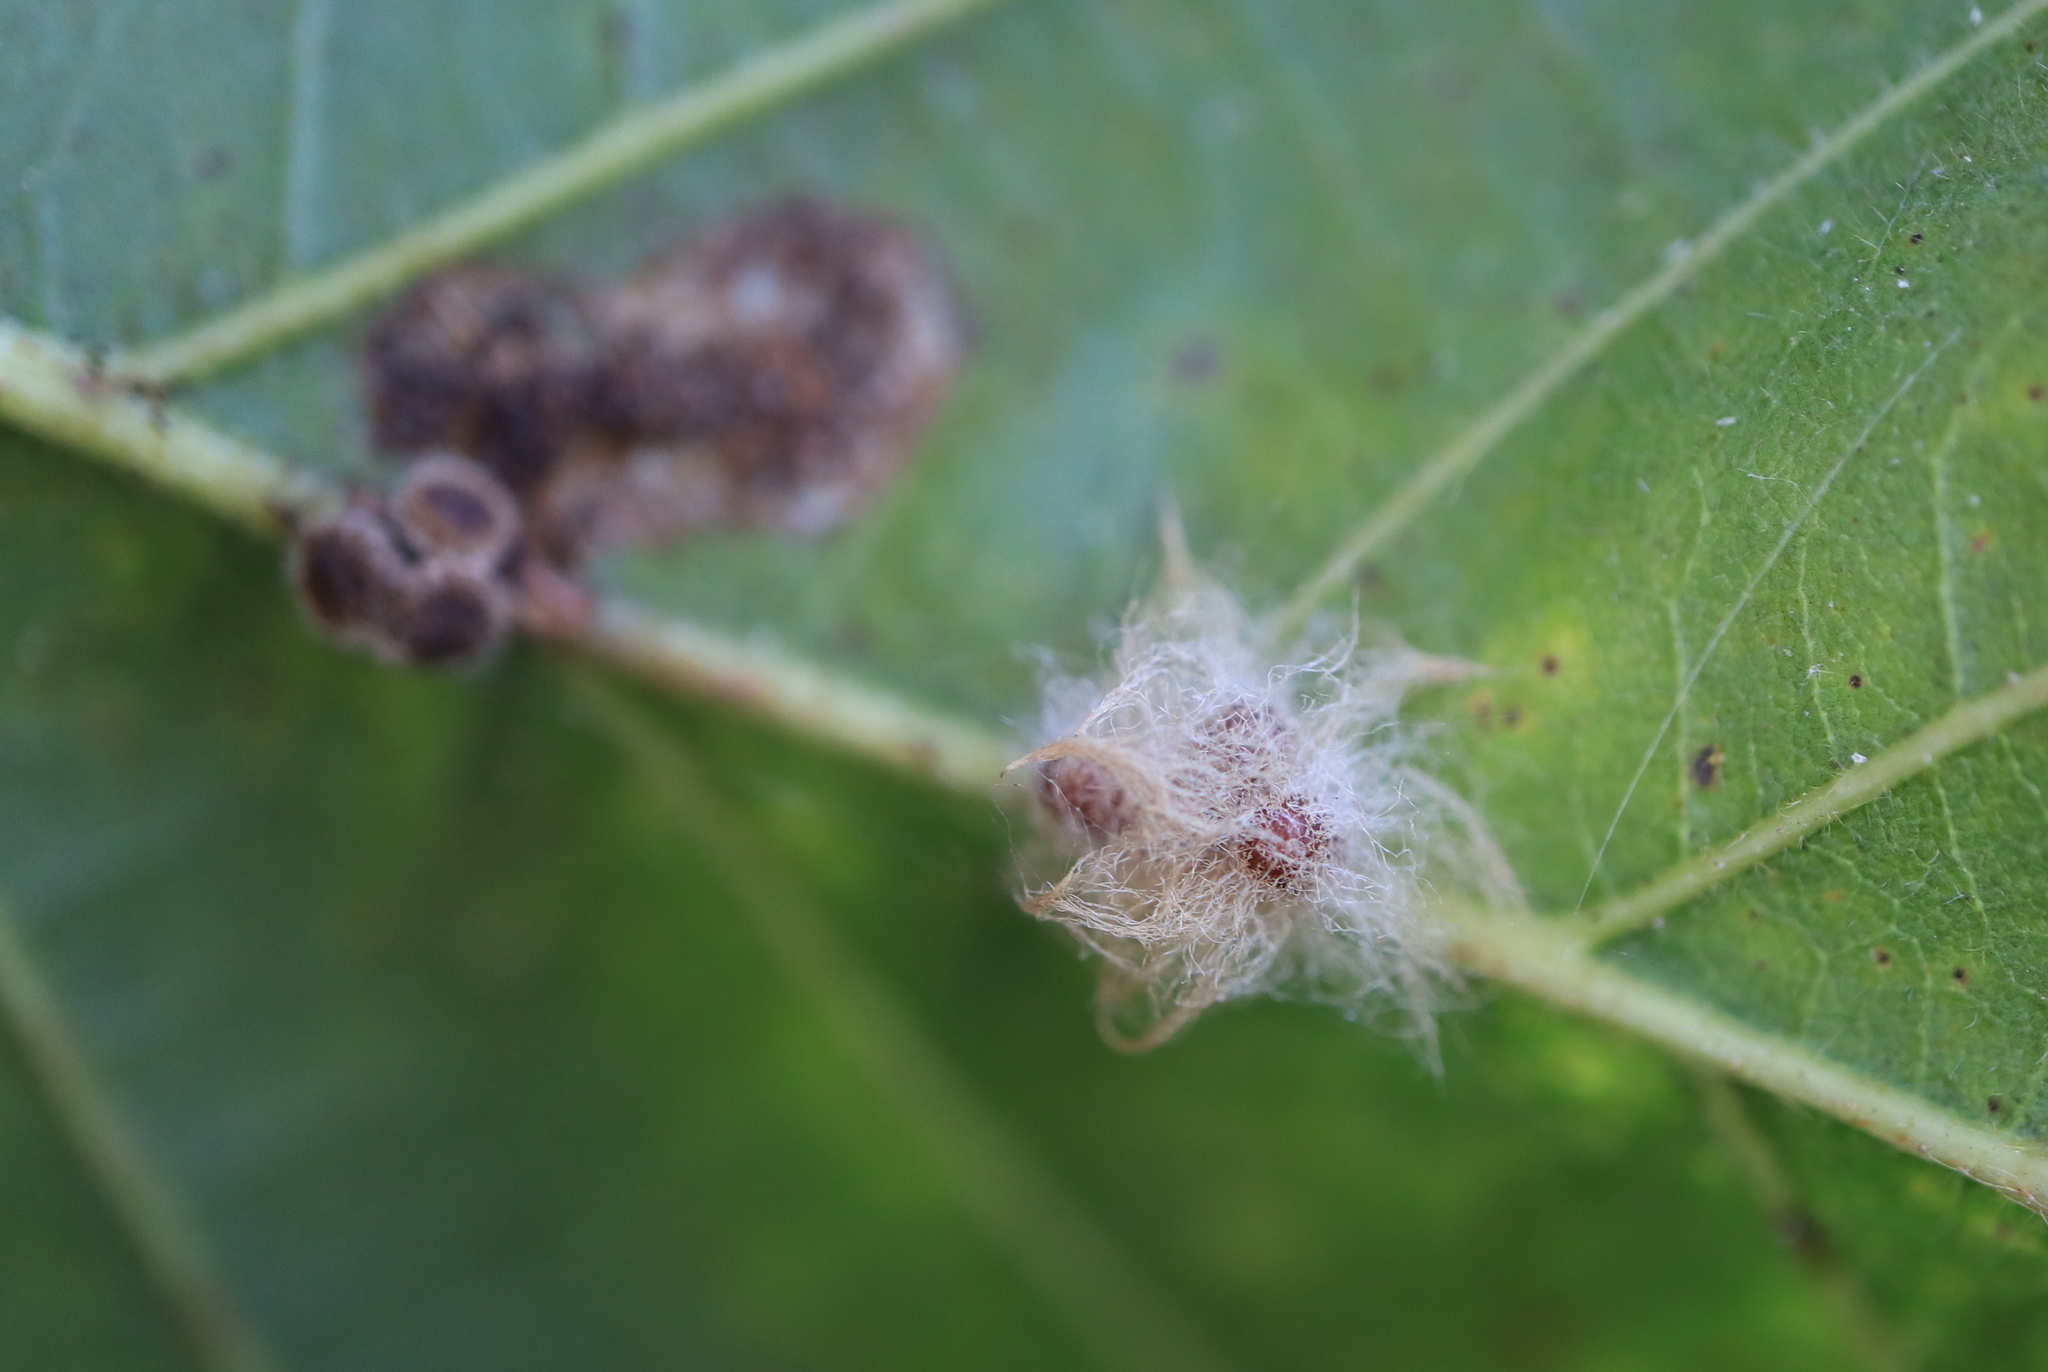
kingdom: Animalia
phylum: Arthropoda
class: Insecta
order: Hymenoptera
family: Cynipidae
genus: Andricus
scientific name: Andricus Druon ignotum
